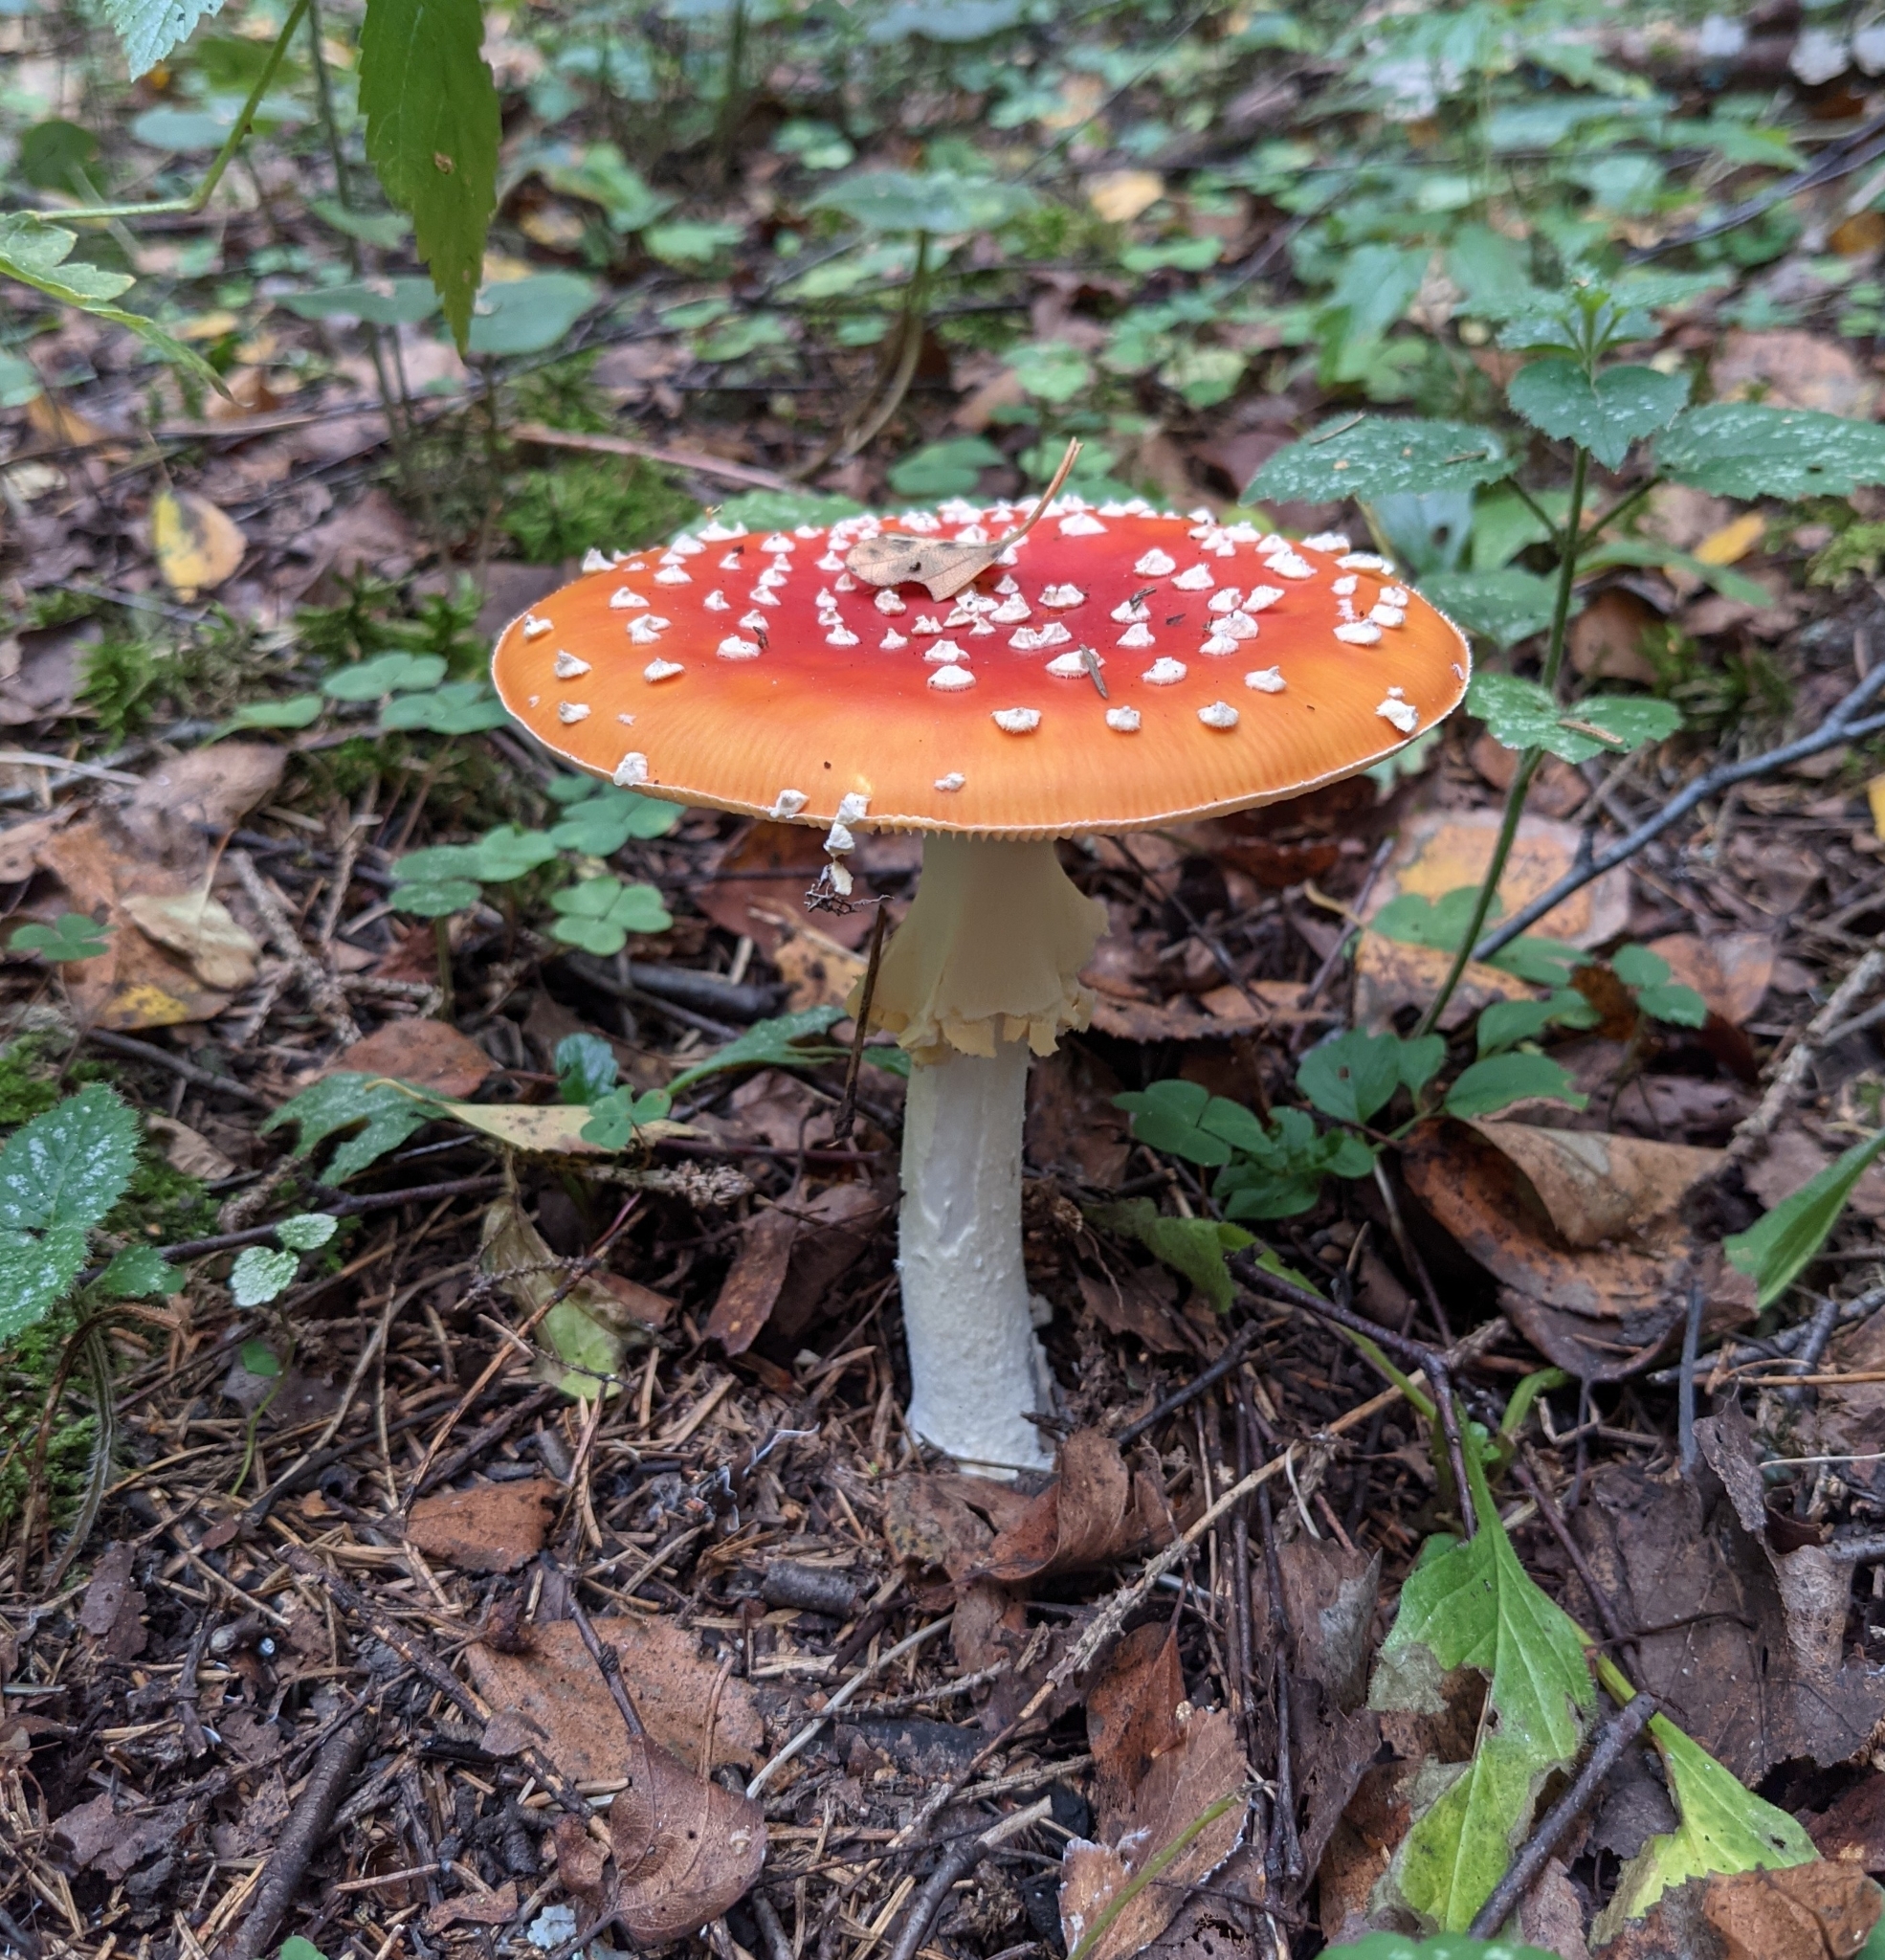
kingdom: Fungi
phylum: Basidiomycota
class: Agaricomycetes
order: Agaricales
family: Amanitaceae
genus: Amanita
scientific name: Amanita muscaria
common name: Fly agaric
